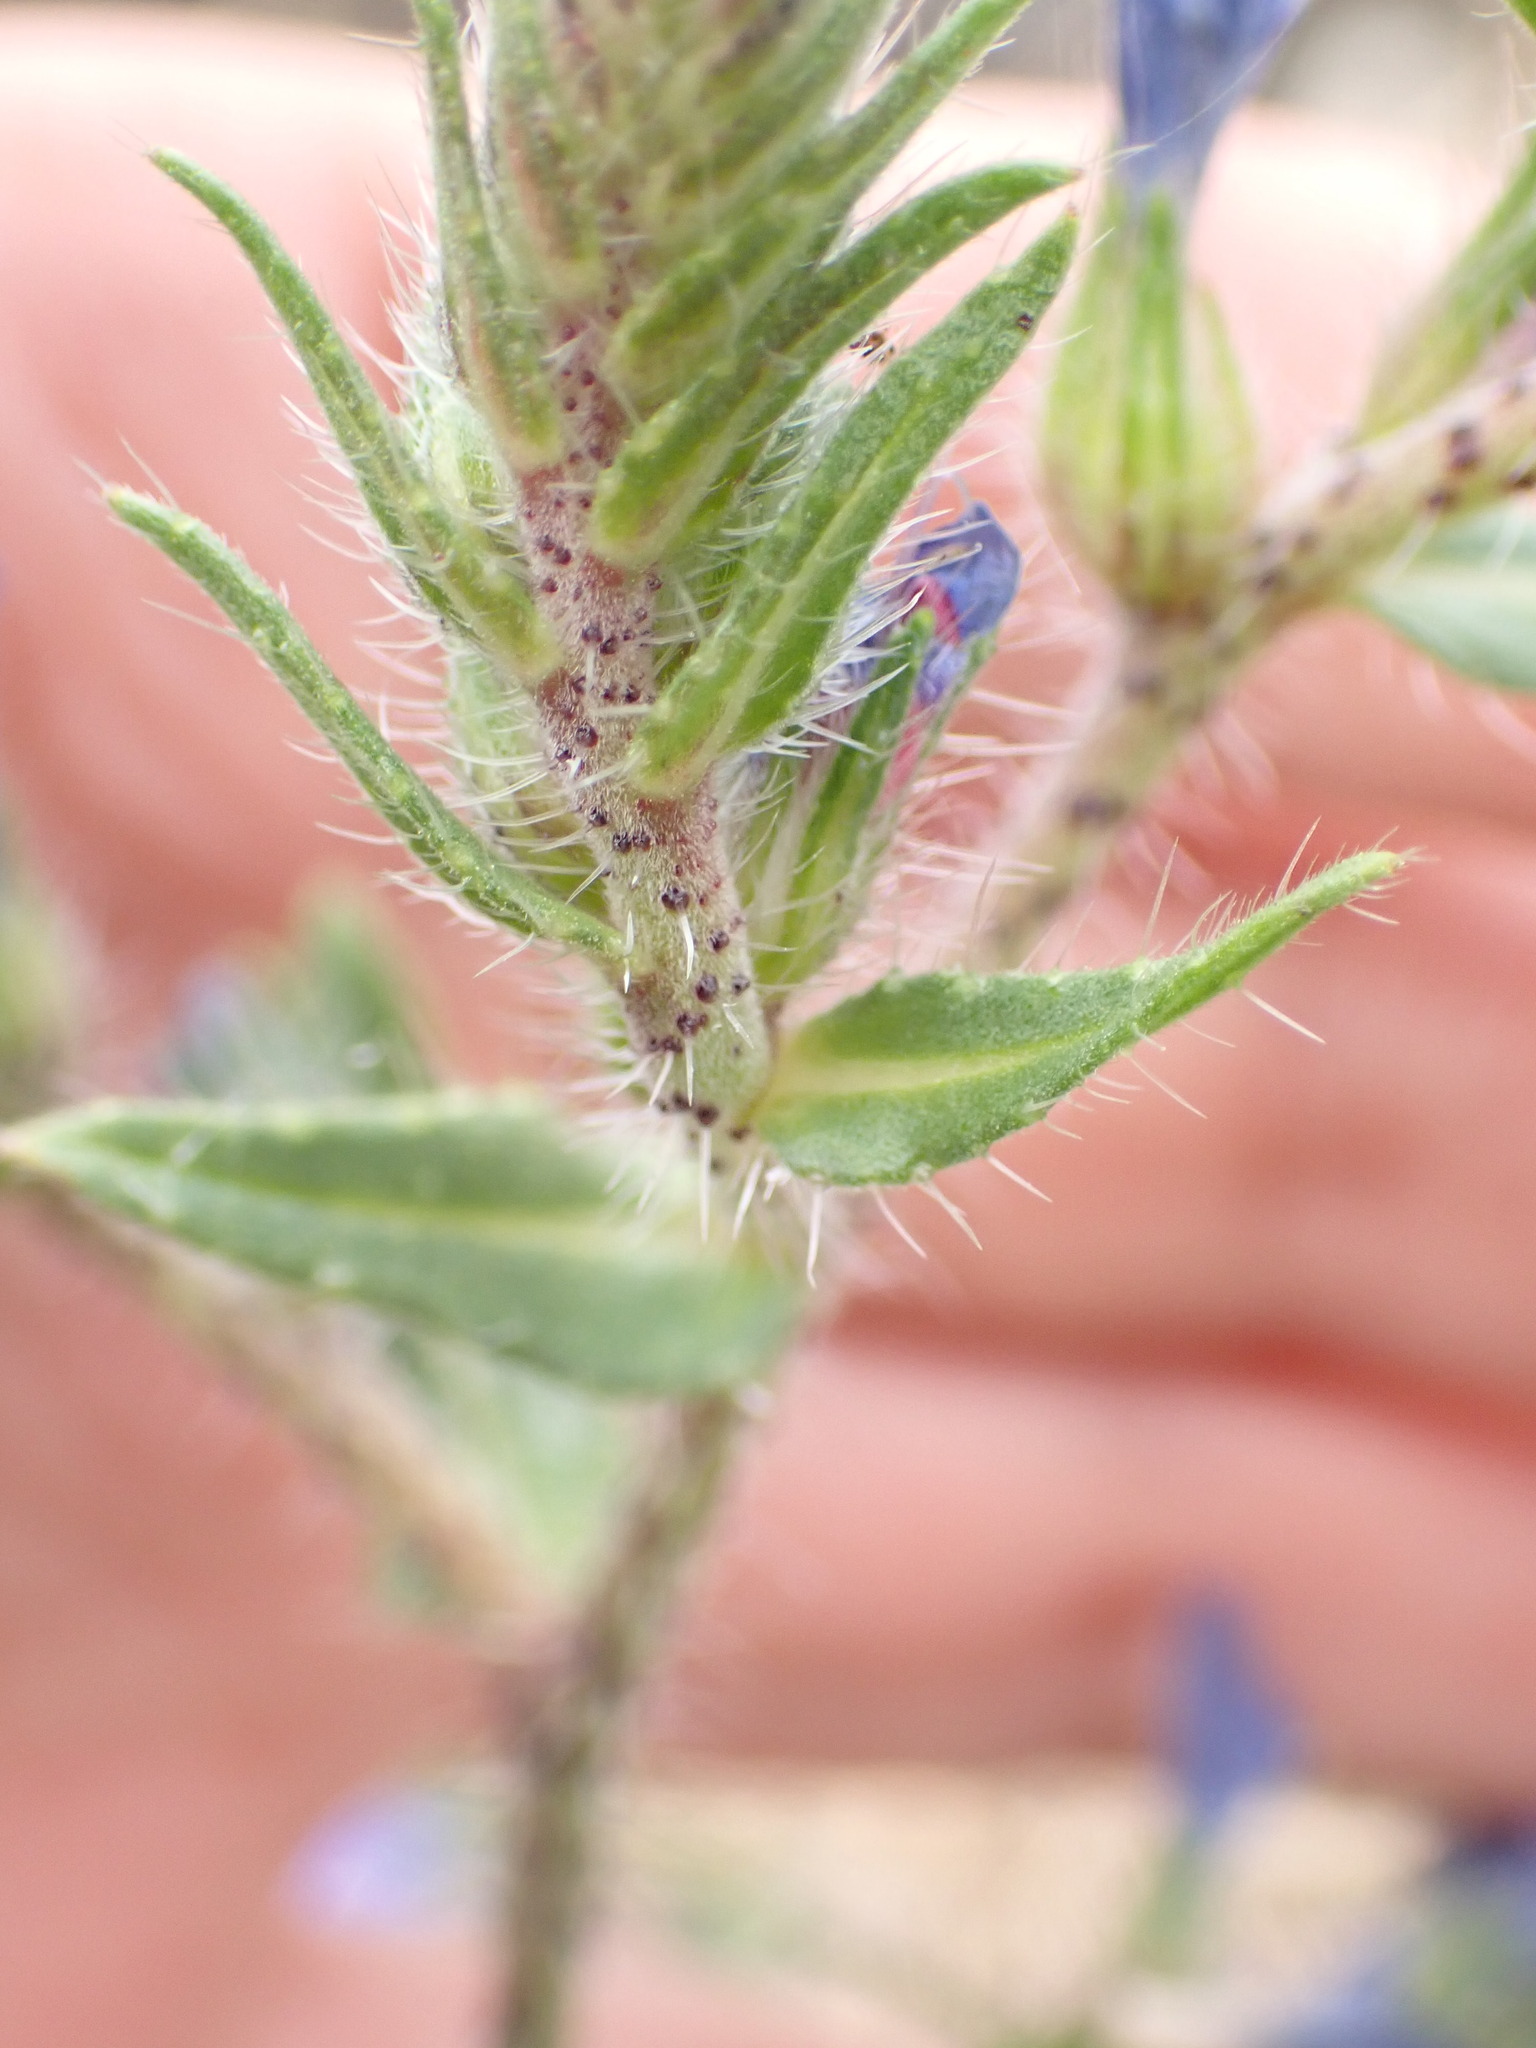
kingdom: Plantae
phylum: Tracheophyta
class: Magnoliopsida
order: Boraginales
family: Boraginaceae
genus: Echium
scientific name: Echium vulgare
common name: Common viper's bugloss
